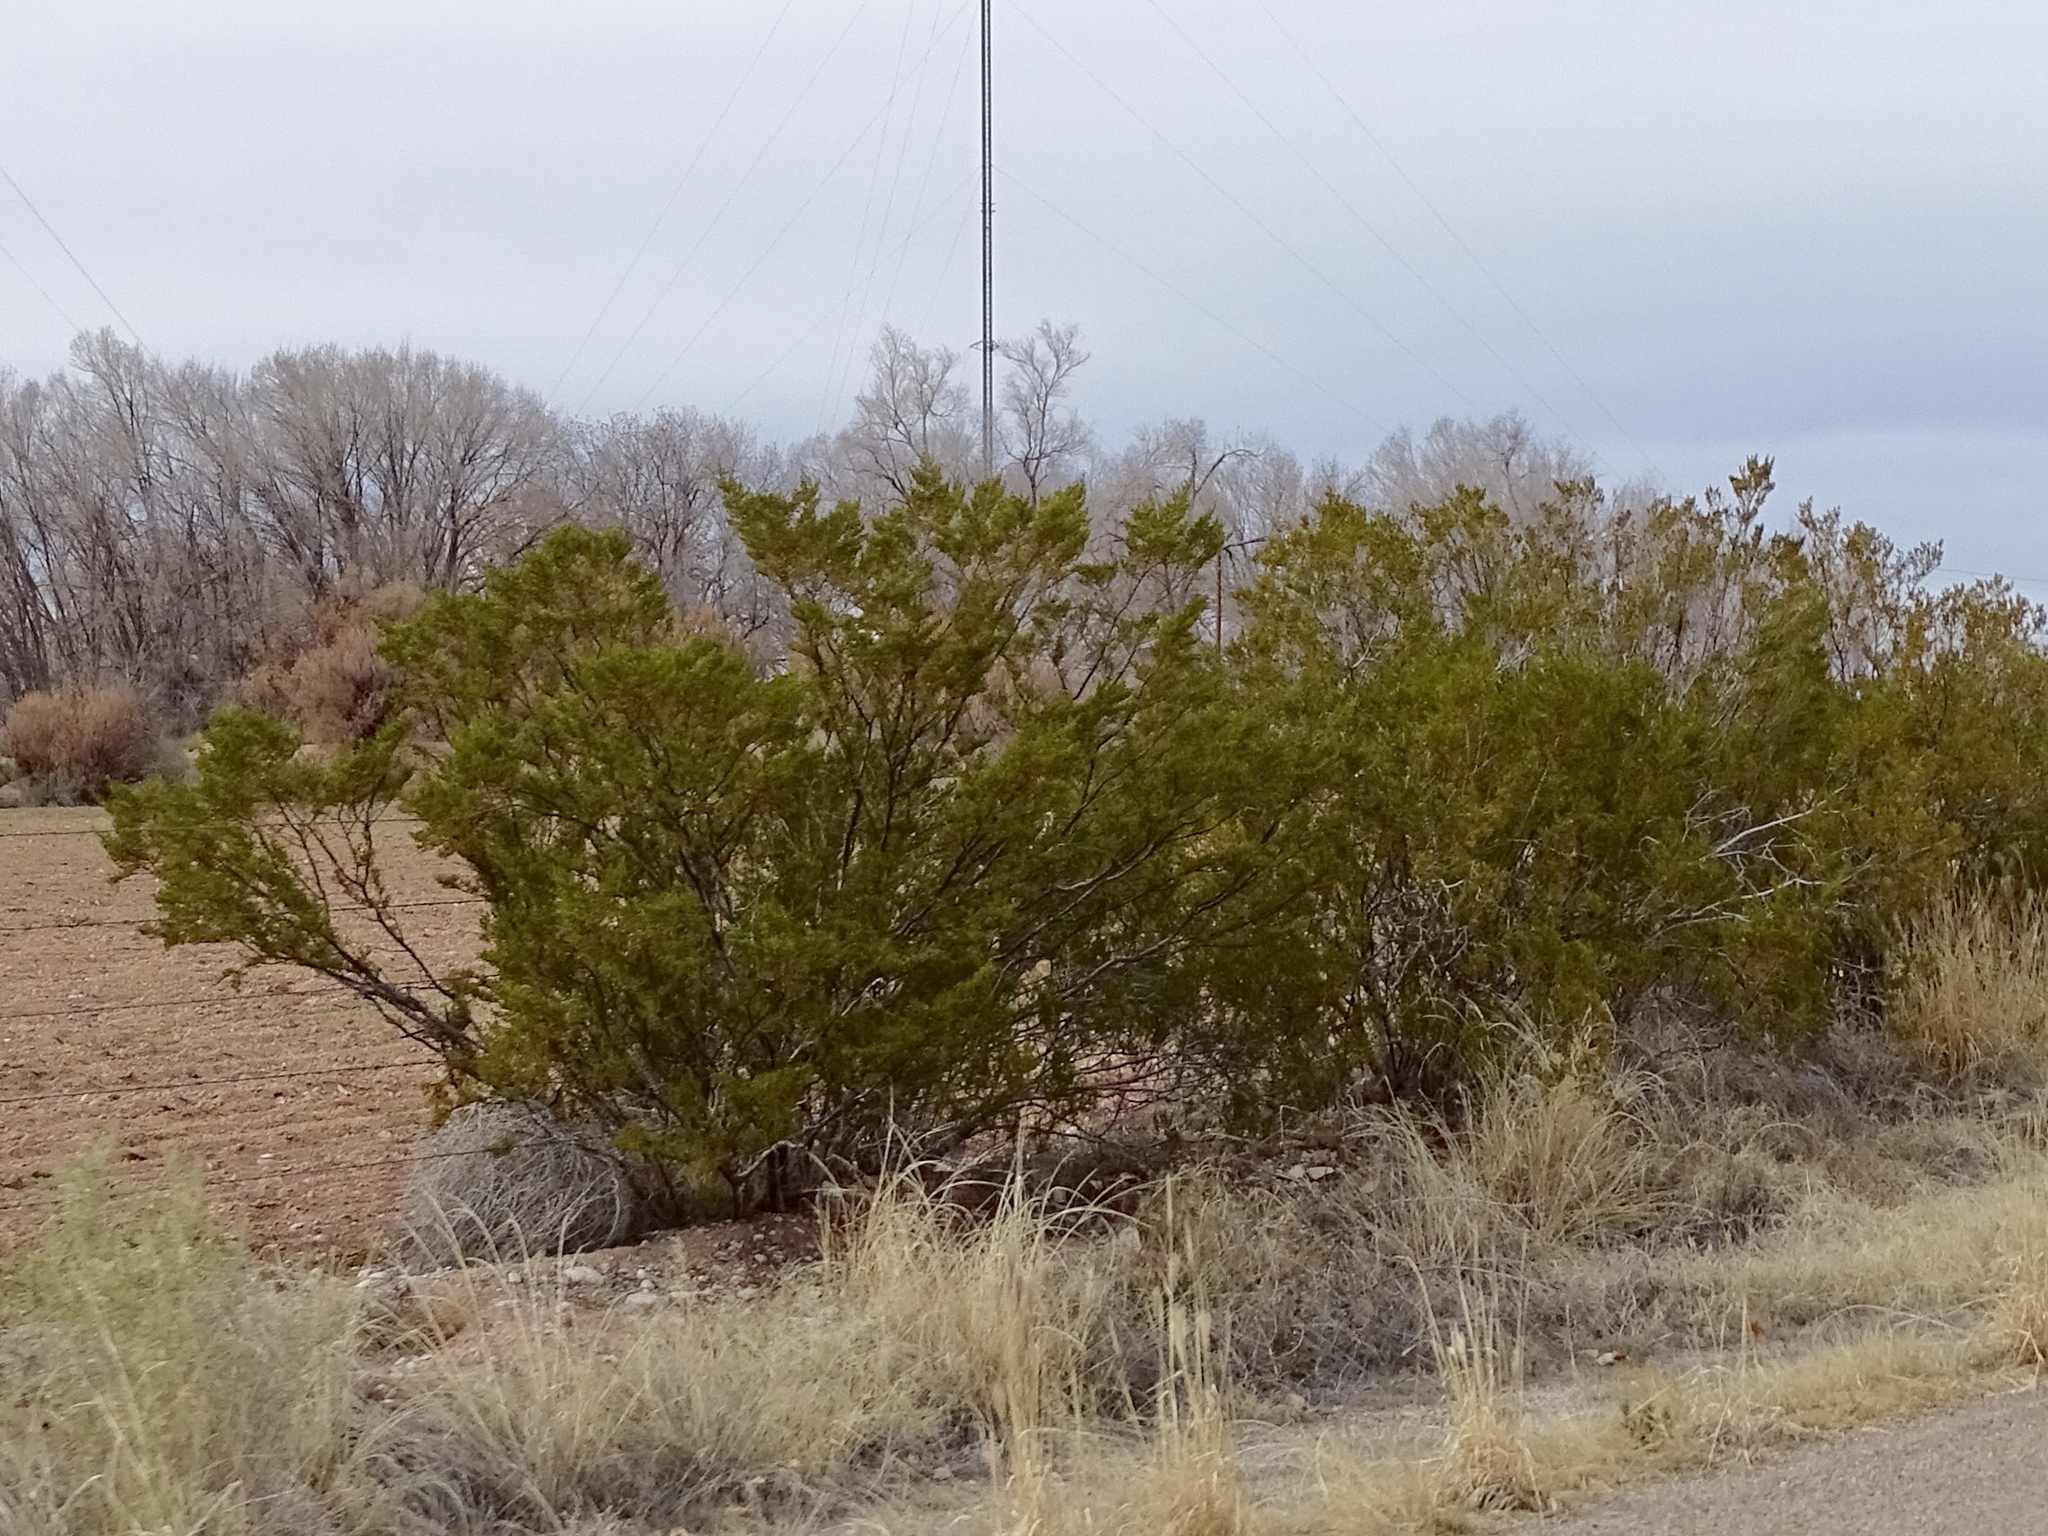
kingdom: Plantae
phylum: Tracheophyta
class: Magnoliopsida
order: Zygophyllales
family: Zygophyllaceae
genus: Larrea
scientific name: Larrea tridentata
